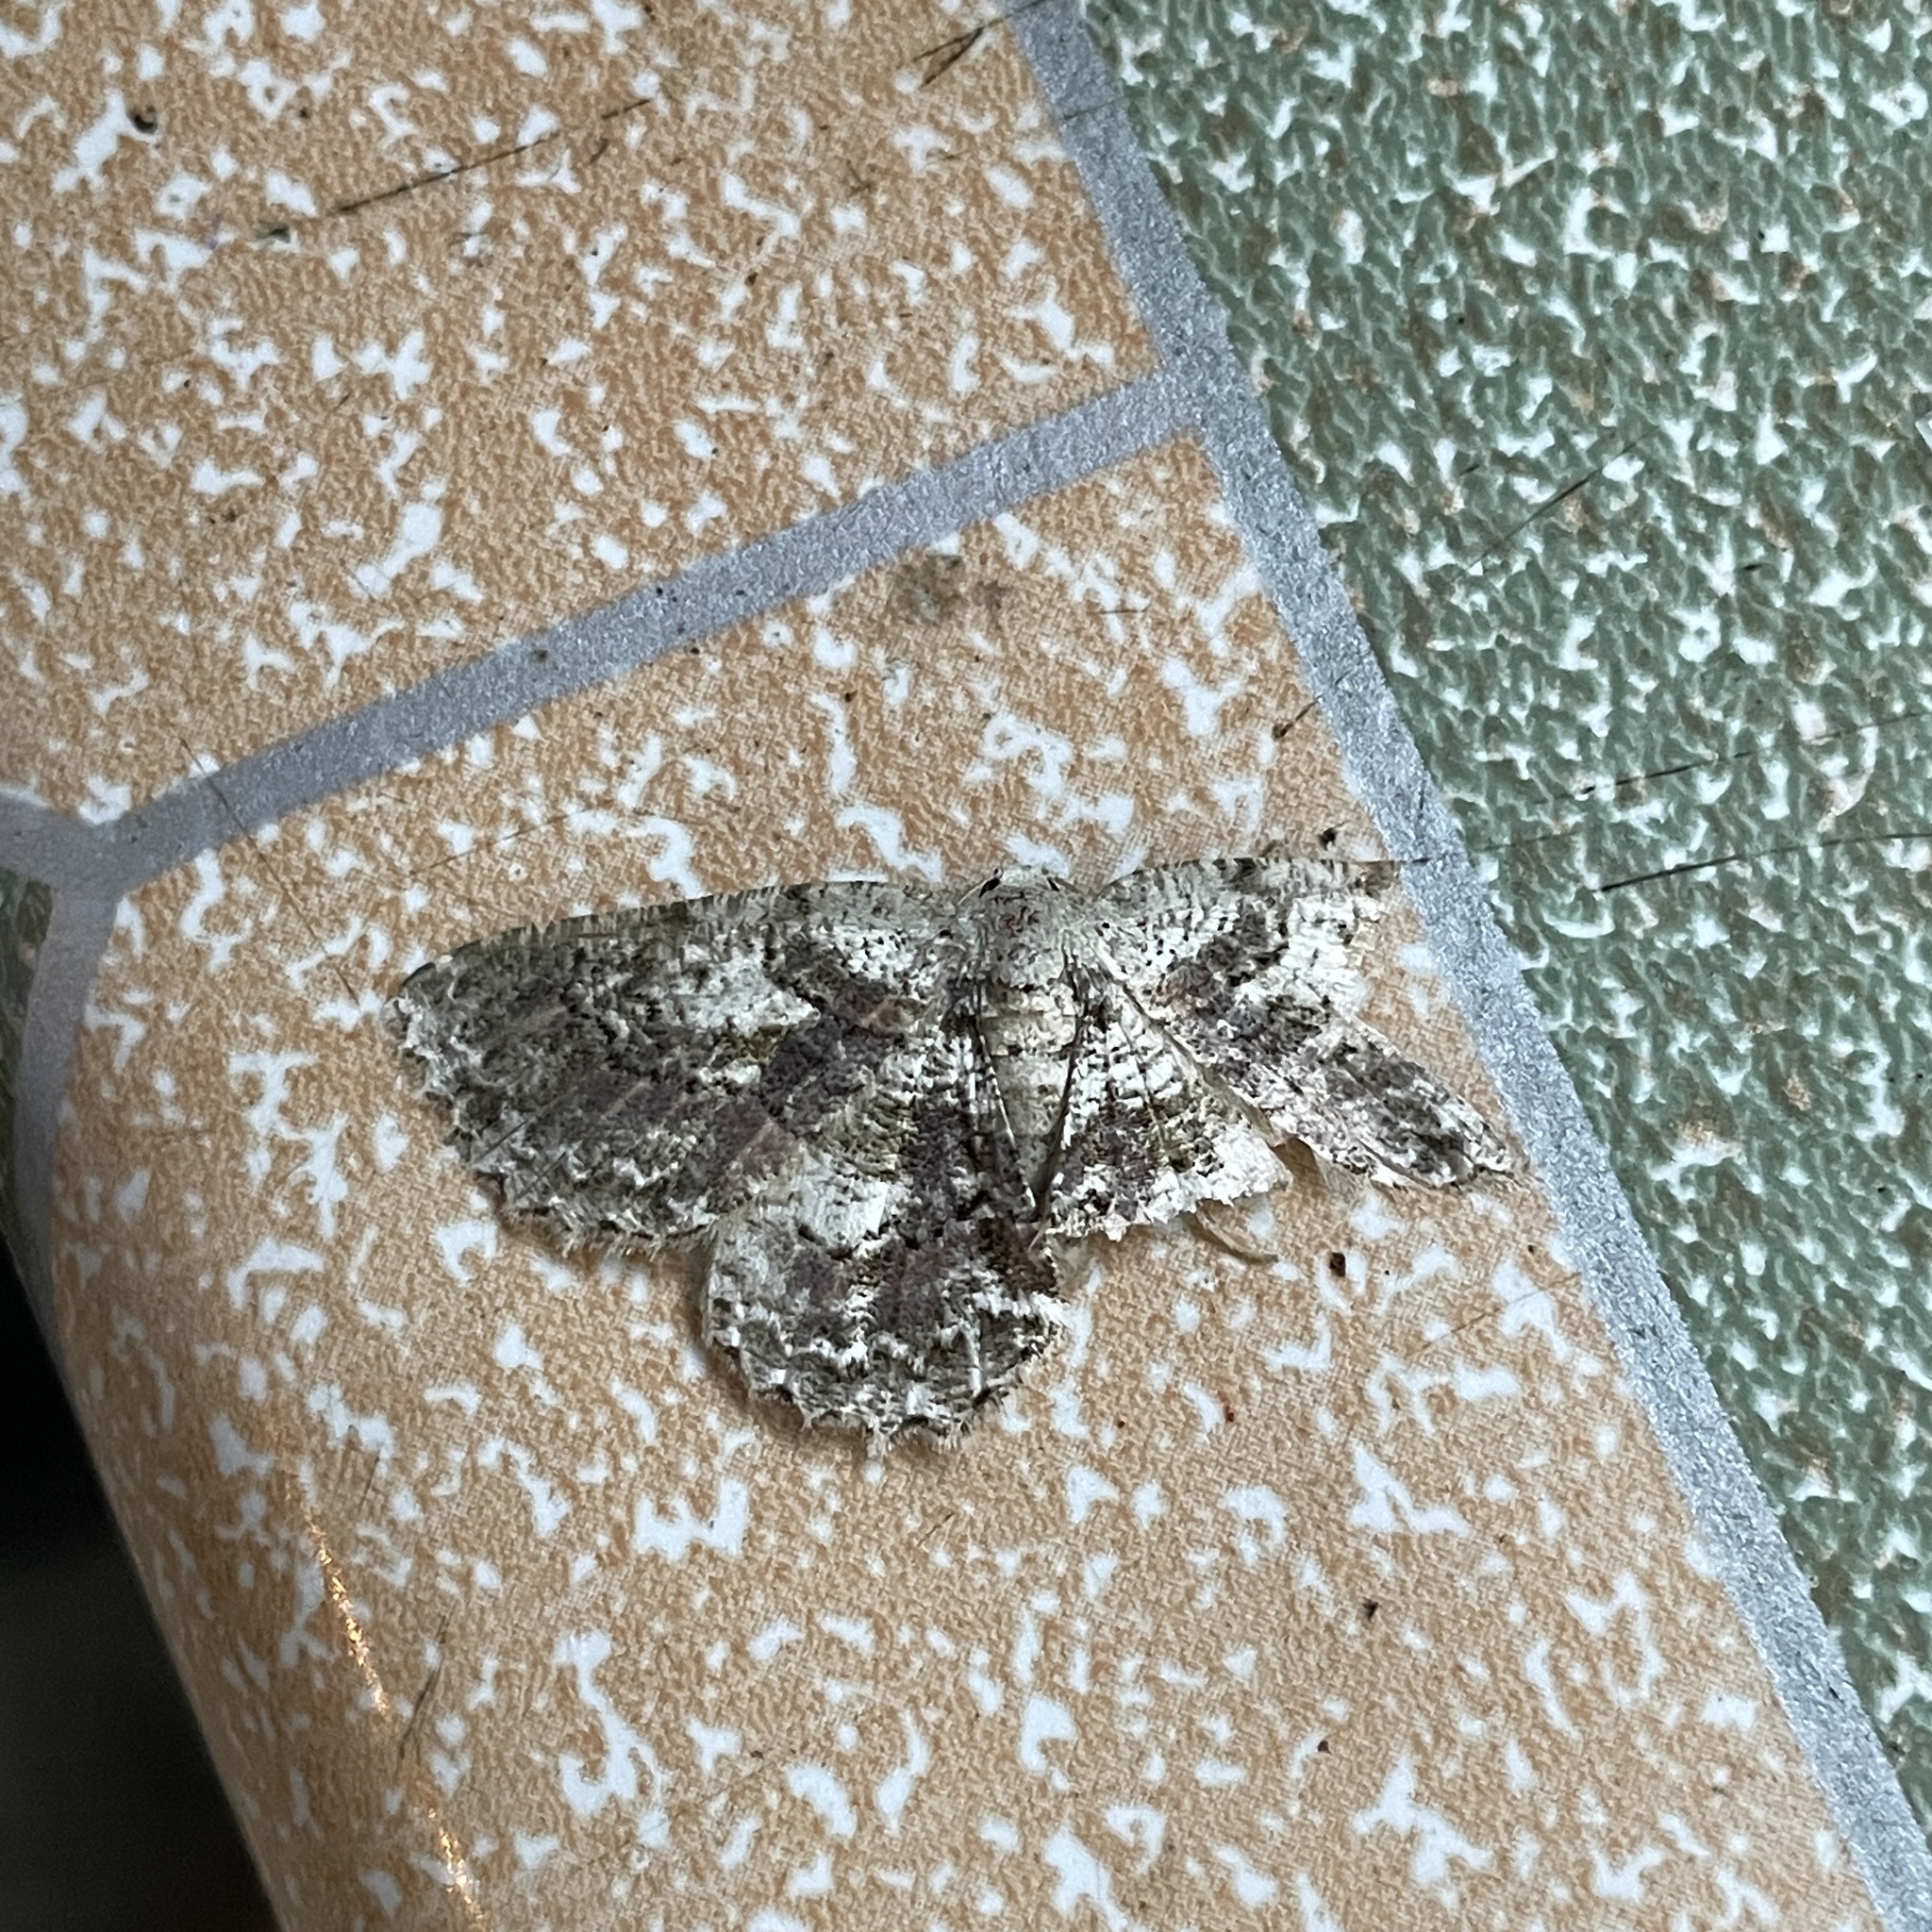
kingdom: Animalia
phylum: Arthropoda
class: Insecta
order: Lepidoptera
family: Geometridae
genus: Bryoptera
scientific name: Bryoptera hypomelas
